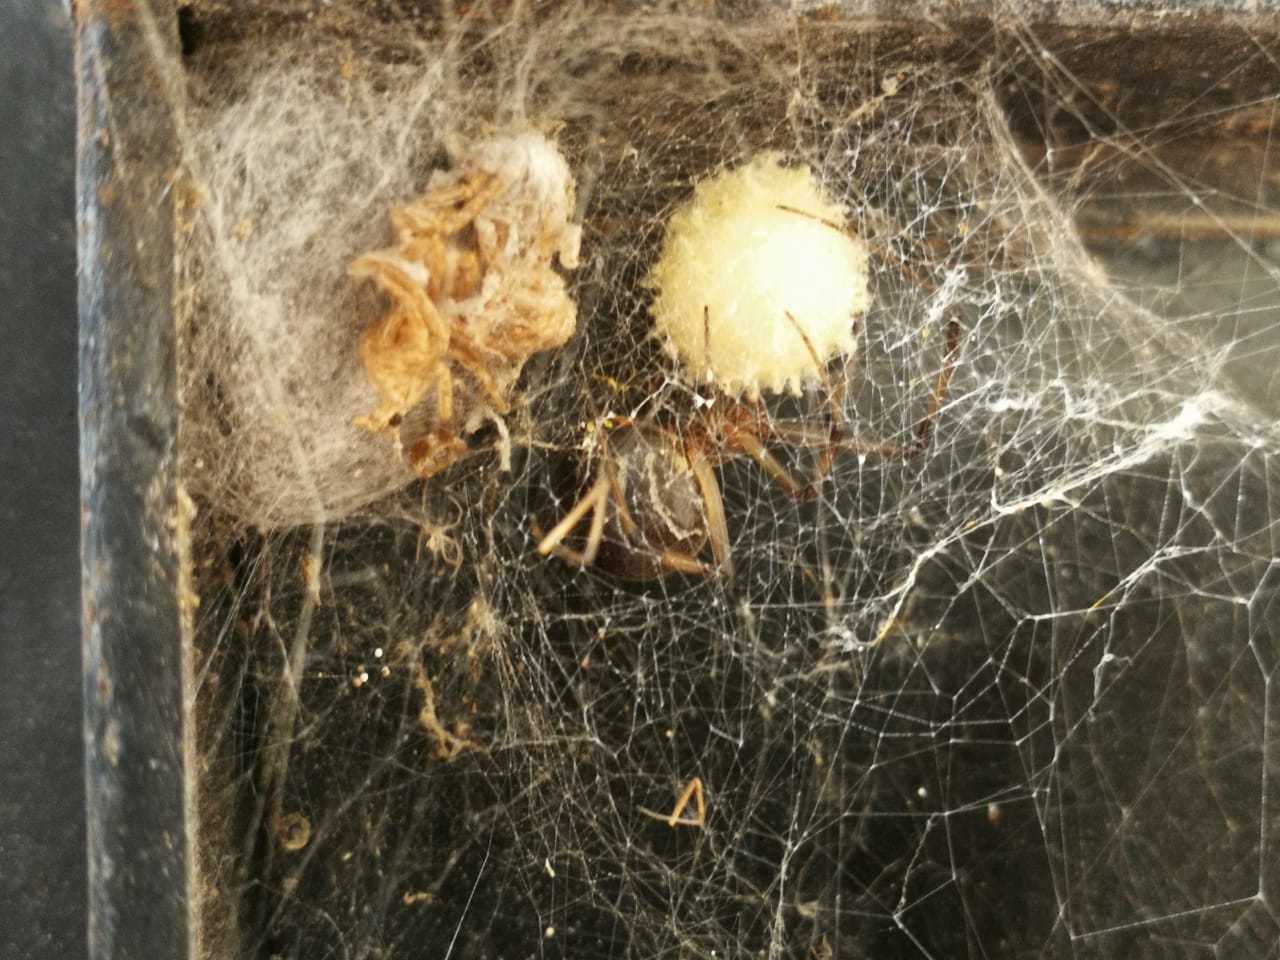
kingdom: Animalia
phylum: Arthropoda
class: Arachnida
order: Araneae
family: Theridiidae
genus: Latrodectus
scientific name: Latrodectus geometricus
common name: Brown widow spider
